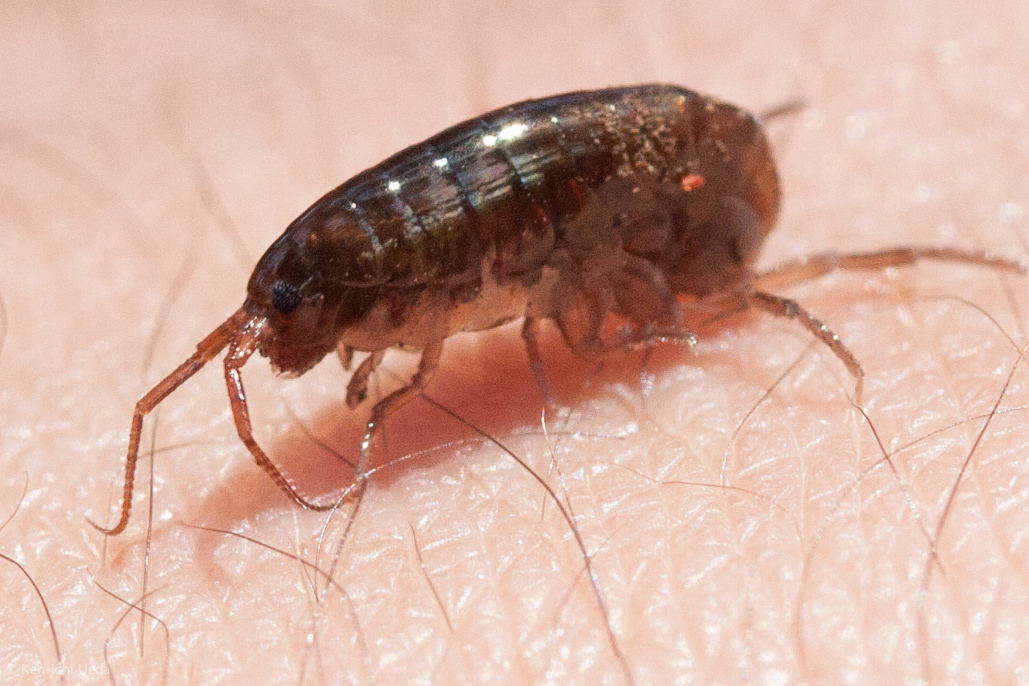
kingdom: Animalia
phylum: Arthropoda
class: Malacostraca
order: Amphipoda
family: Arcitalitridae
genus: Arcitalitrus
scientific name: Arcitalitrus sylvaticus
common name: Gammarid amphipod
